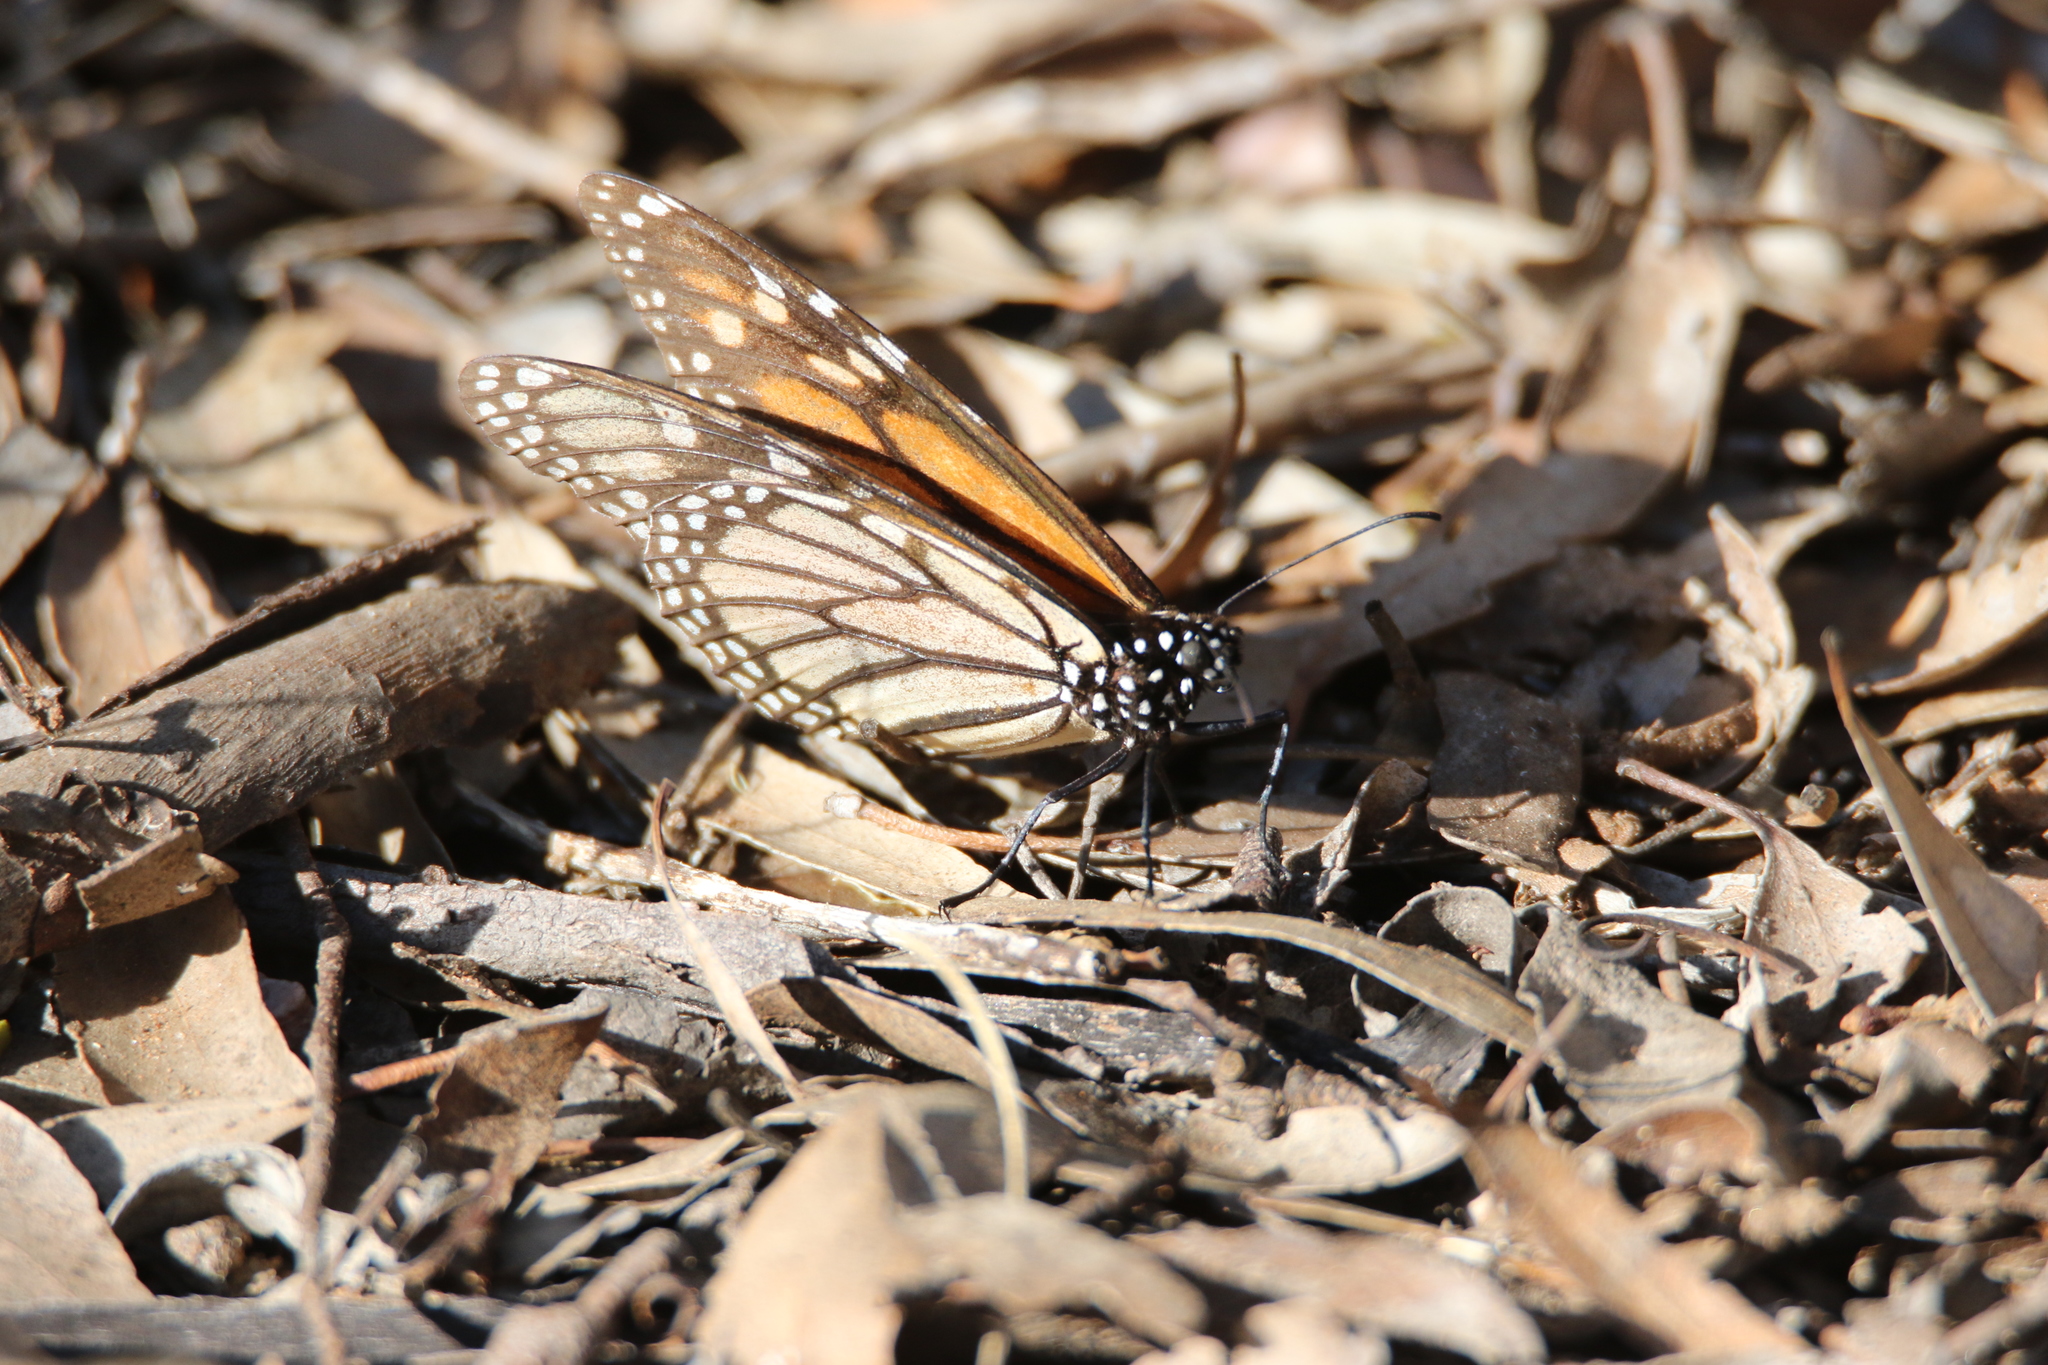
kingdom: Animalia
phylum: Arthropoda
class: Insecta
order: Lepidoptera
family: Nymphalidae
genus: Danaus
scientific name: Danaus plexippus
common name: Monarch
